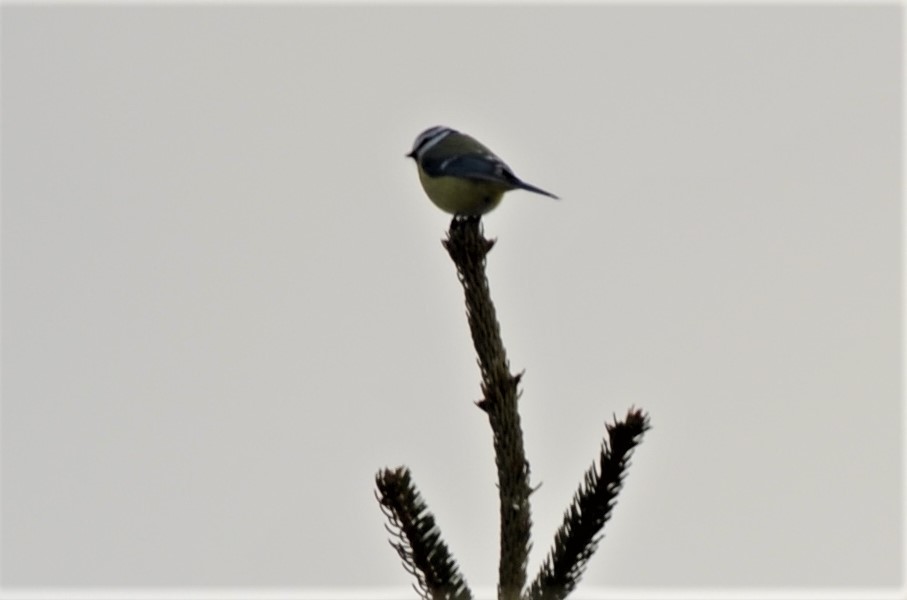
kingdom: Animalia
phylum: Chordata
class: Aves
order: Passeriformes
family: Paridae
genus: Cyanistes
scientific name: Cyanistes caeruleus
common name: Eurasian blue tit
